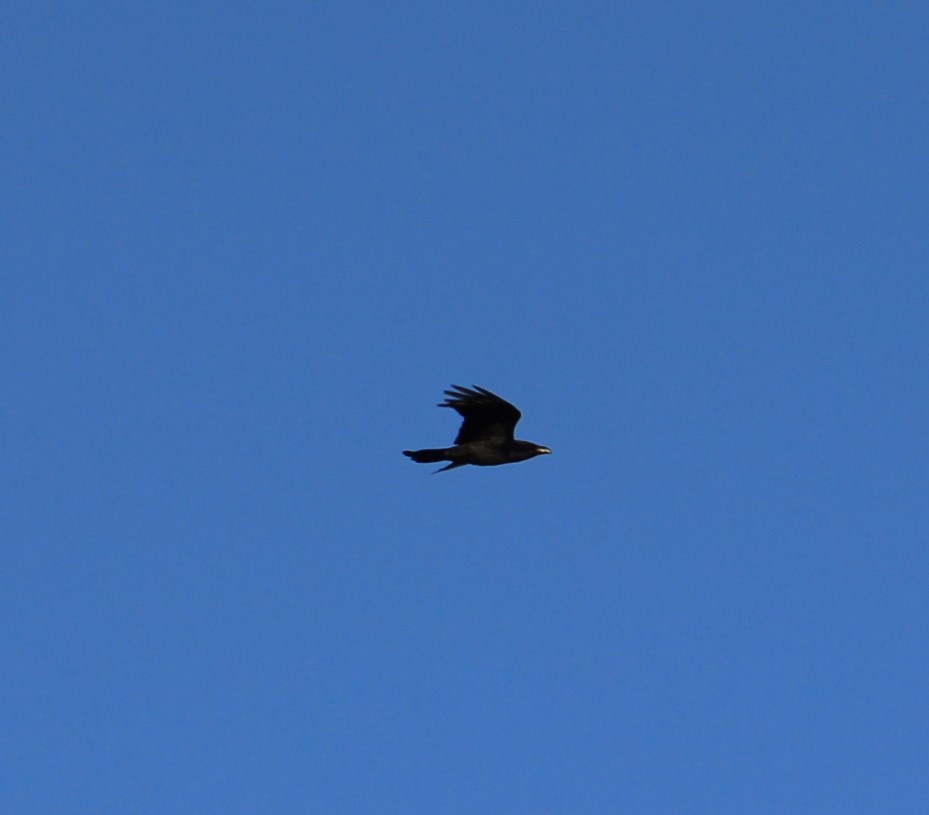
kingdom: Animalia
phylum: Chordata
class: Aves
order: Passeriformes
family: Corvidae
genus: Corvus
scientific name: Corvus corax
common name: Common raven
